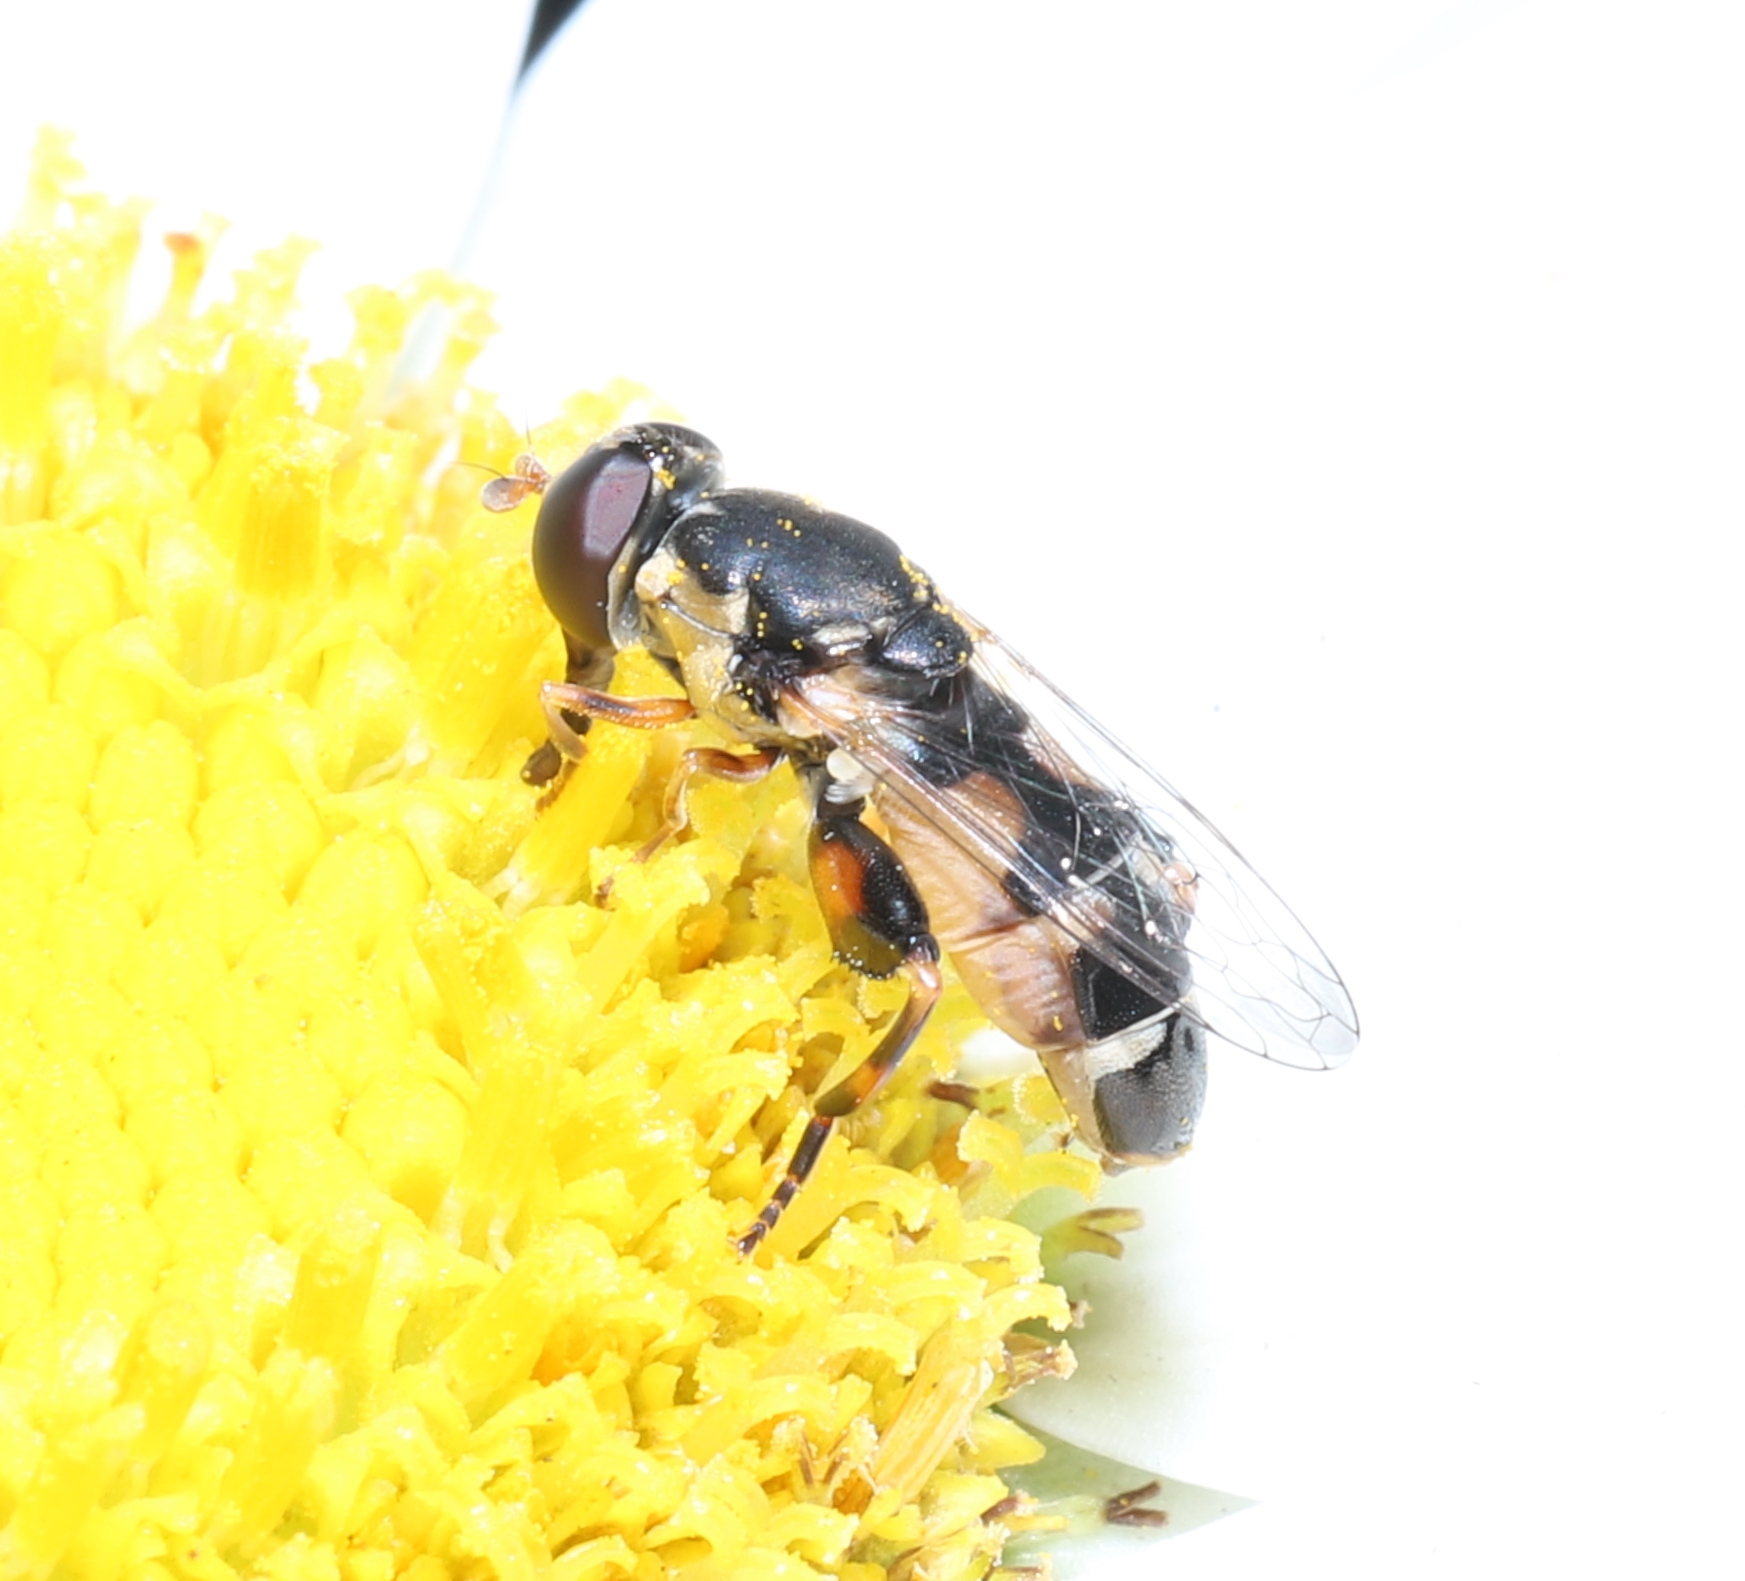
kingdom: Animalia
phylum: Arthropoda
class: Insecta
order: Diptera
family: Syrphidae
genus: Syritta
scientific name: Syritta pipiens
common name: Hover fly
